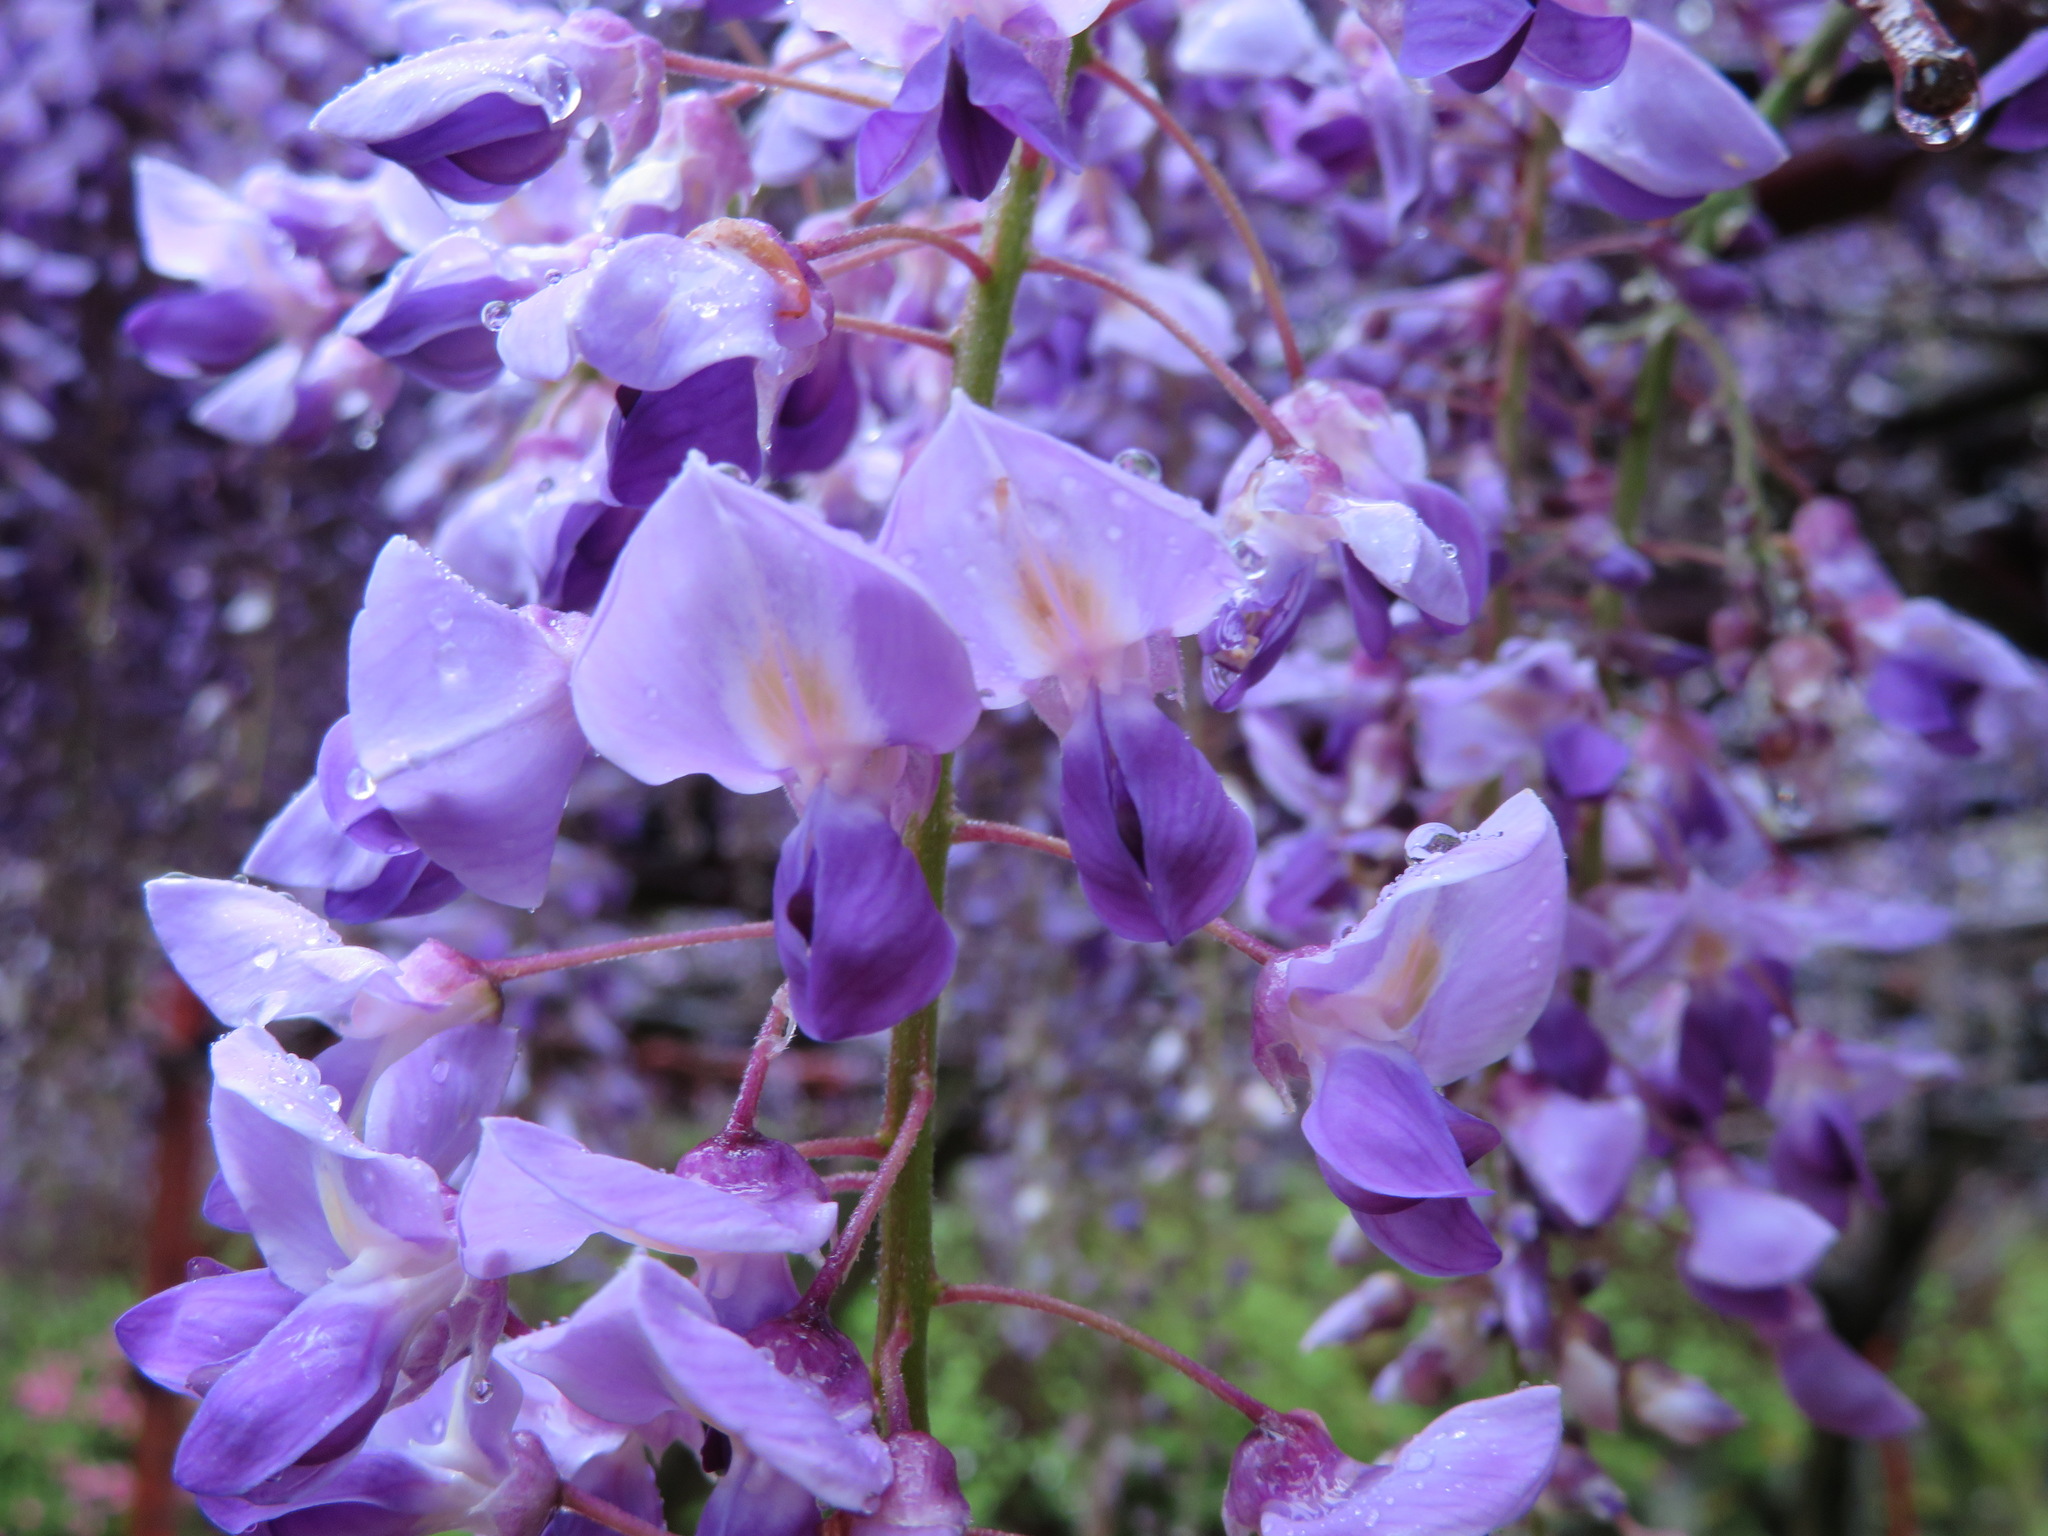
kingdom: Plantae
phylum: Tracheophyta
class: Magnoliopsida
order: Fabales
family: Fabaceae
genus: Wisteria
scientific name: Wisteria floribunda
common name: Japanese wisteria
